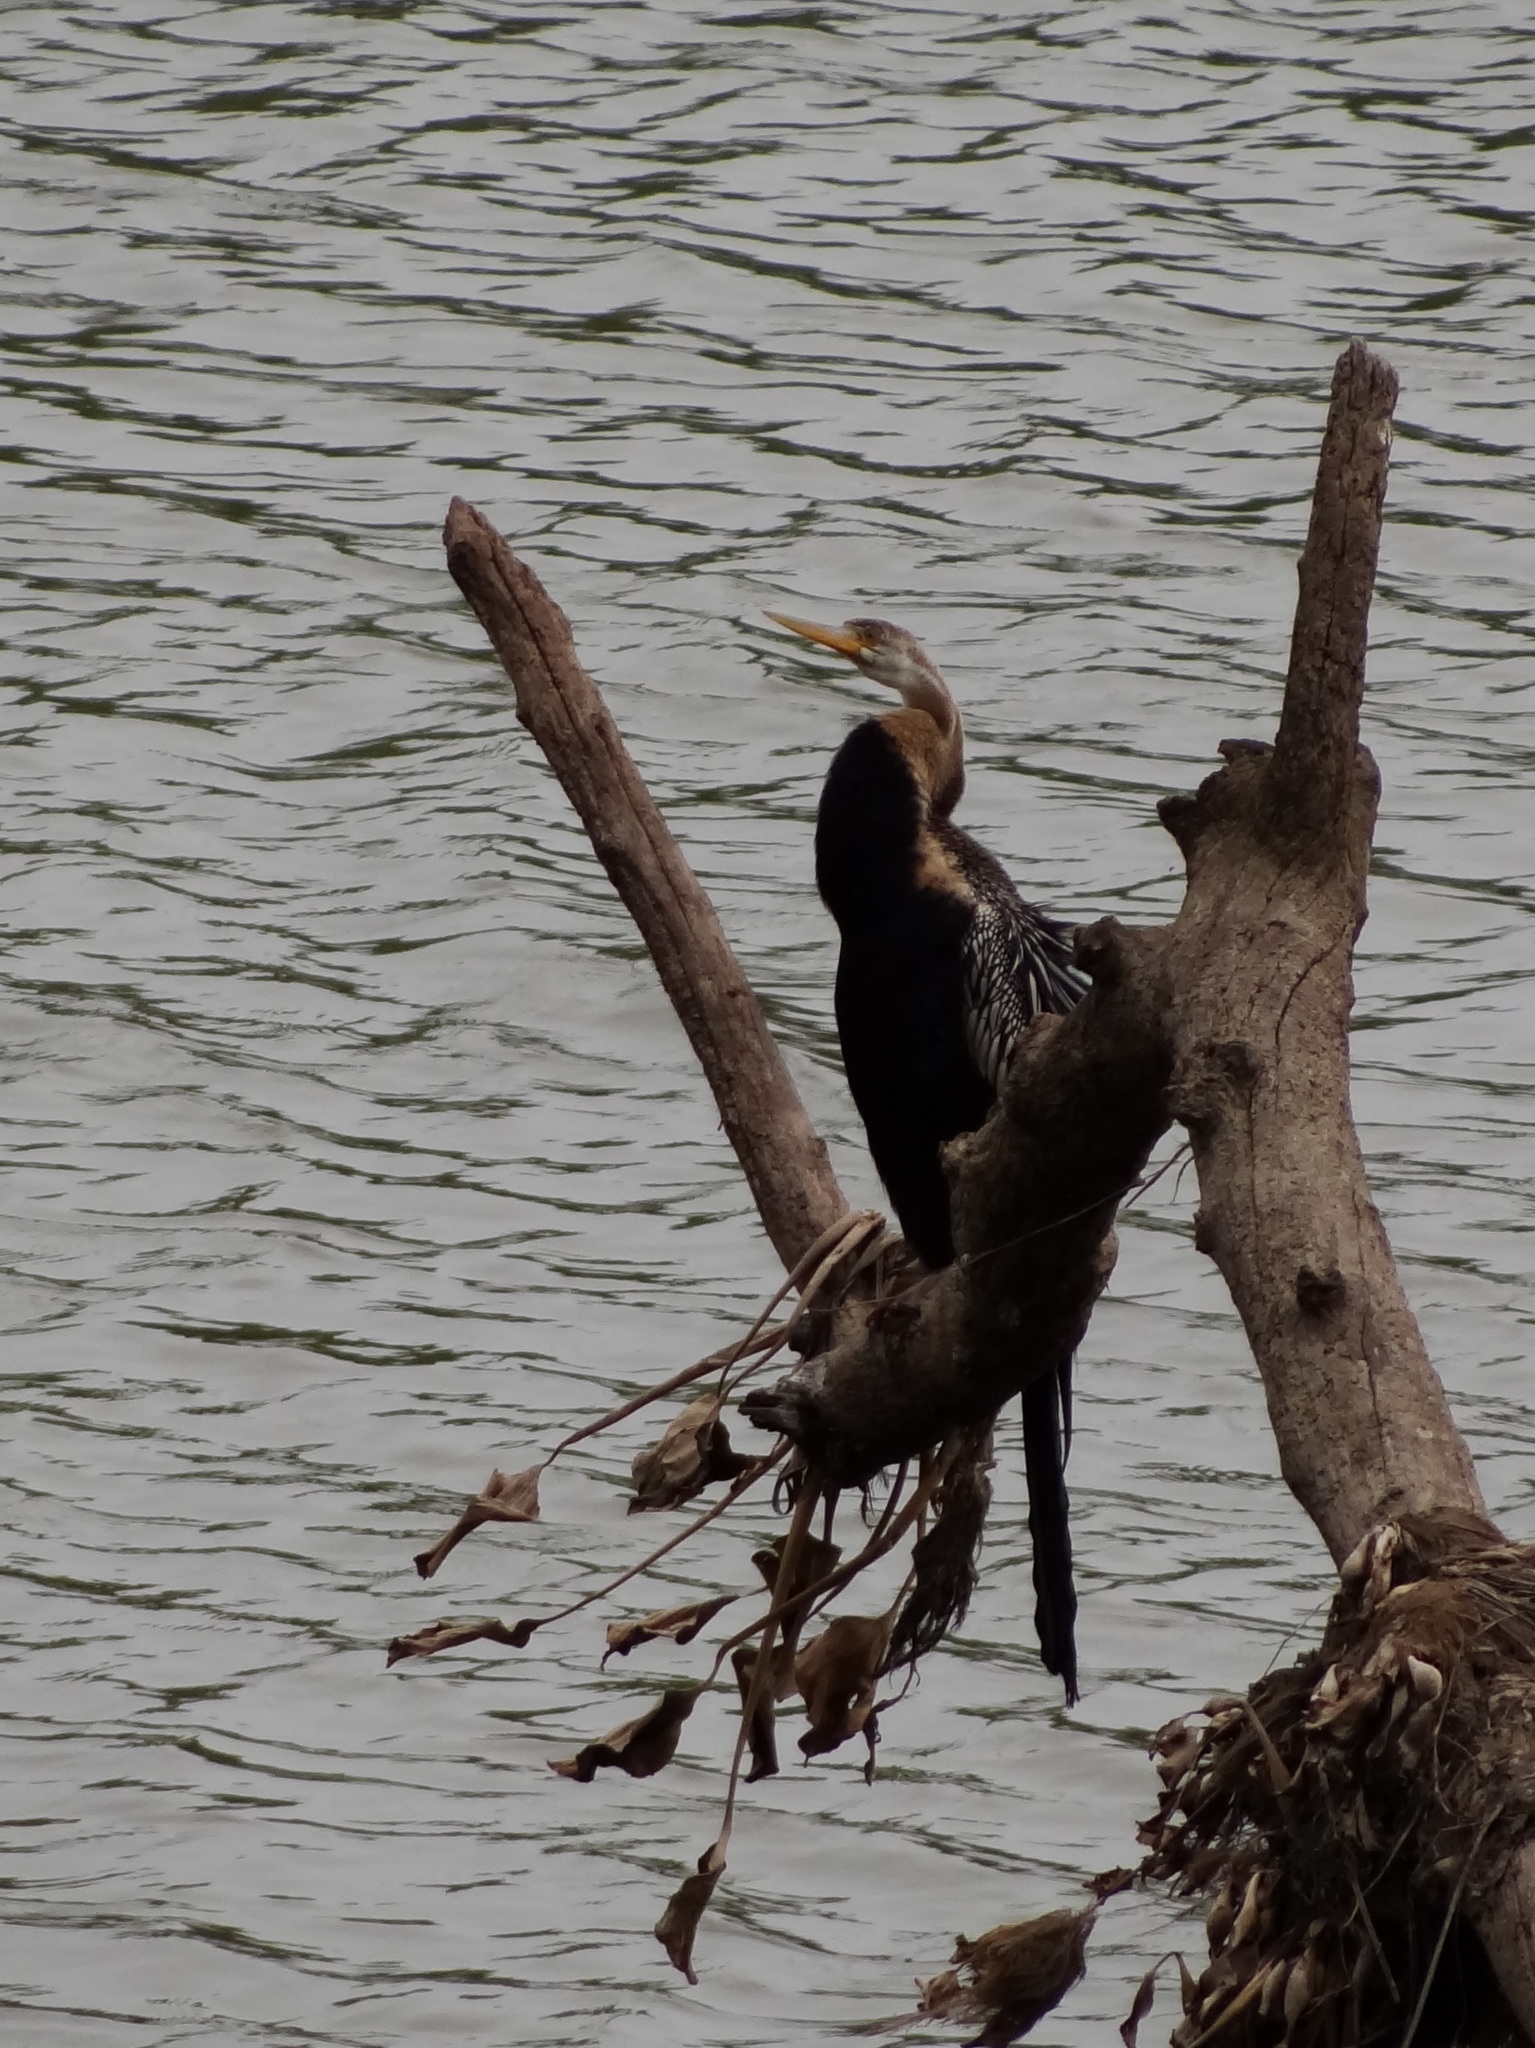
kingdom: Animalia
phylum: Chordata
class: Aves
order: Suliformes
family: Anhingidae
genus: Anhinga
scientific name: Anhinga melanogaster
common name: Oriental darter
